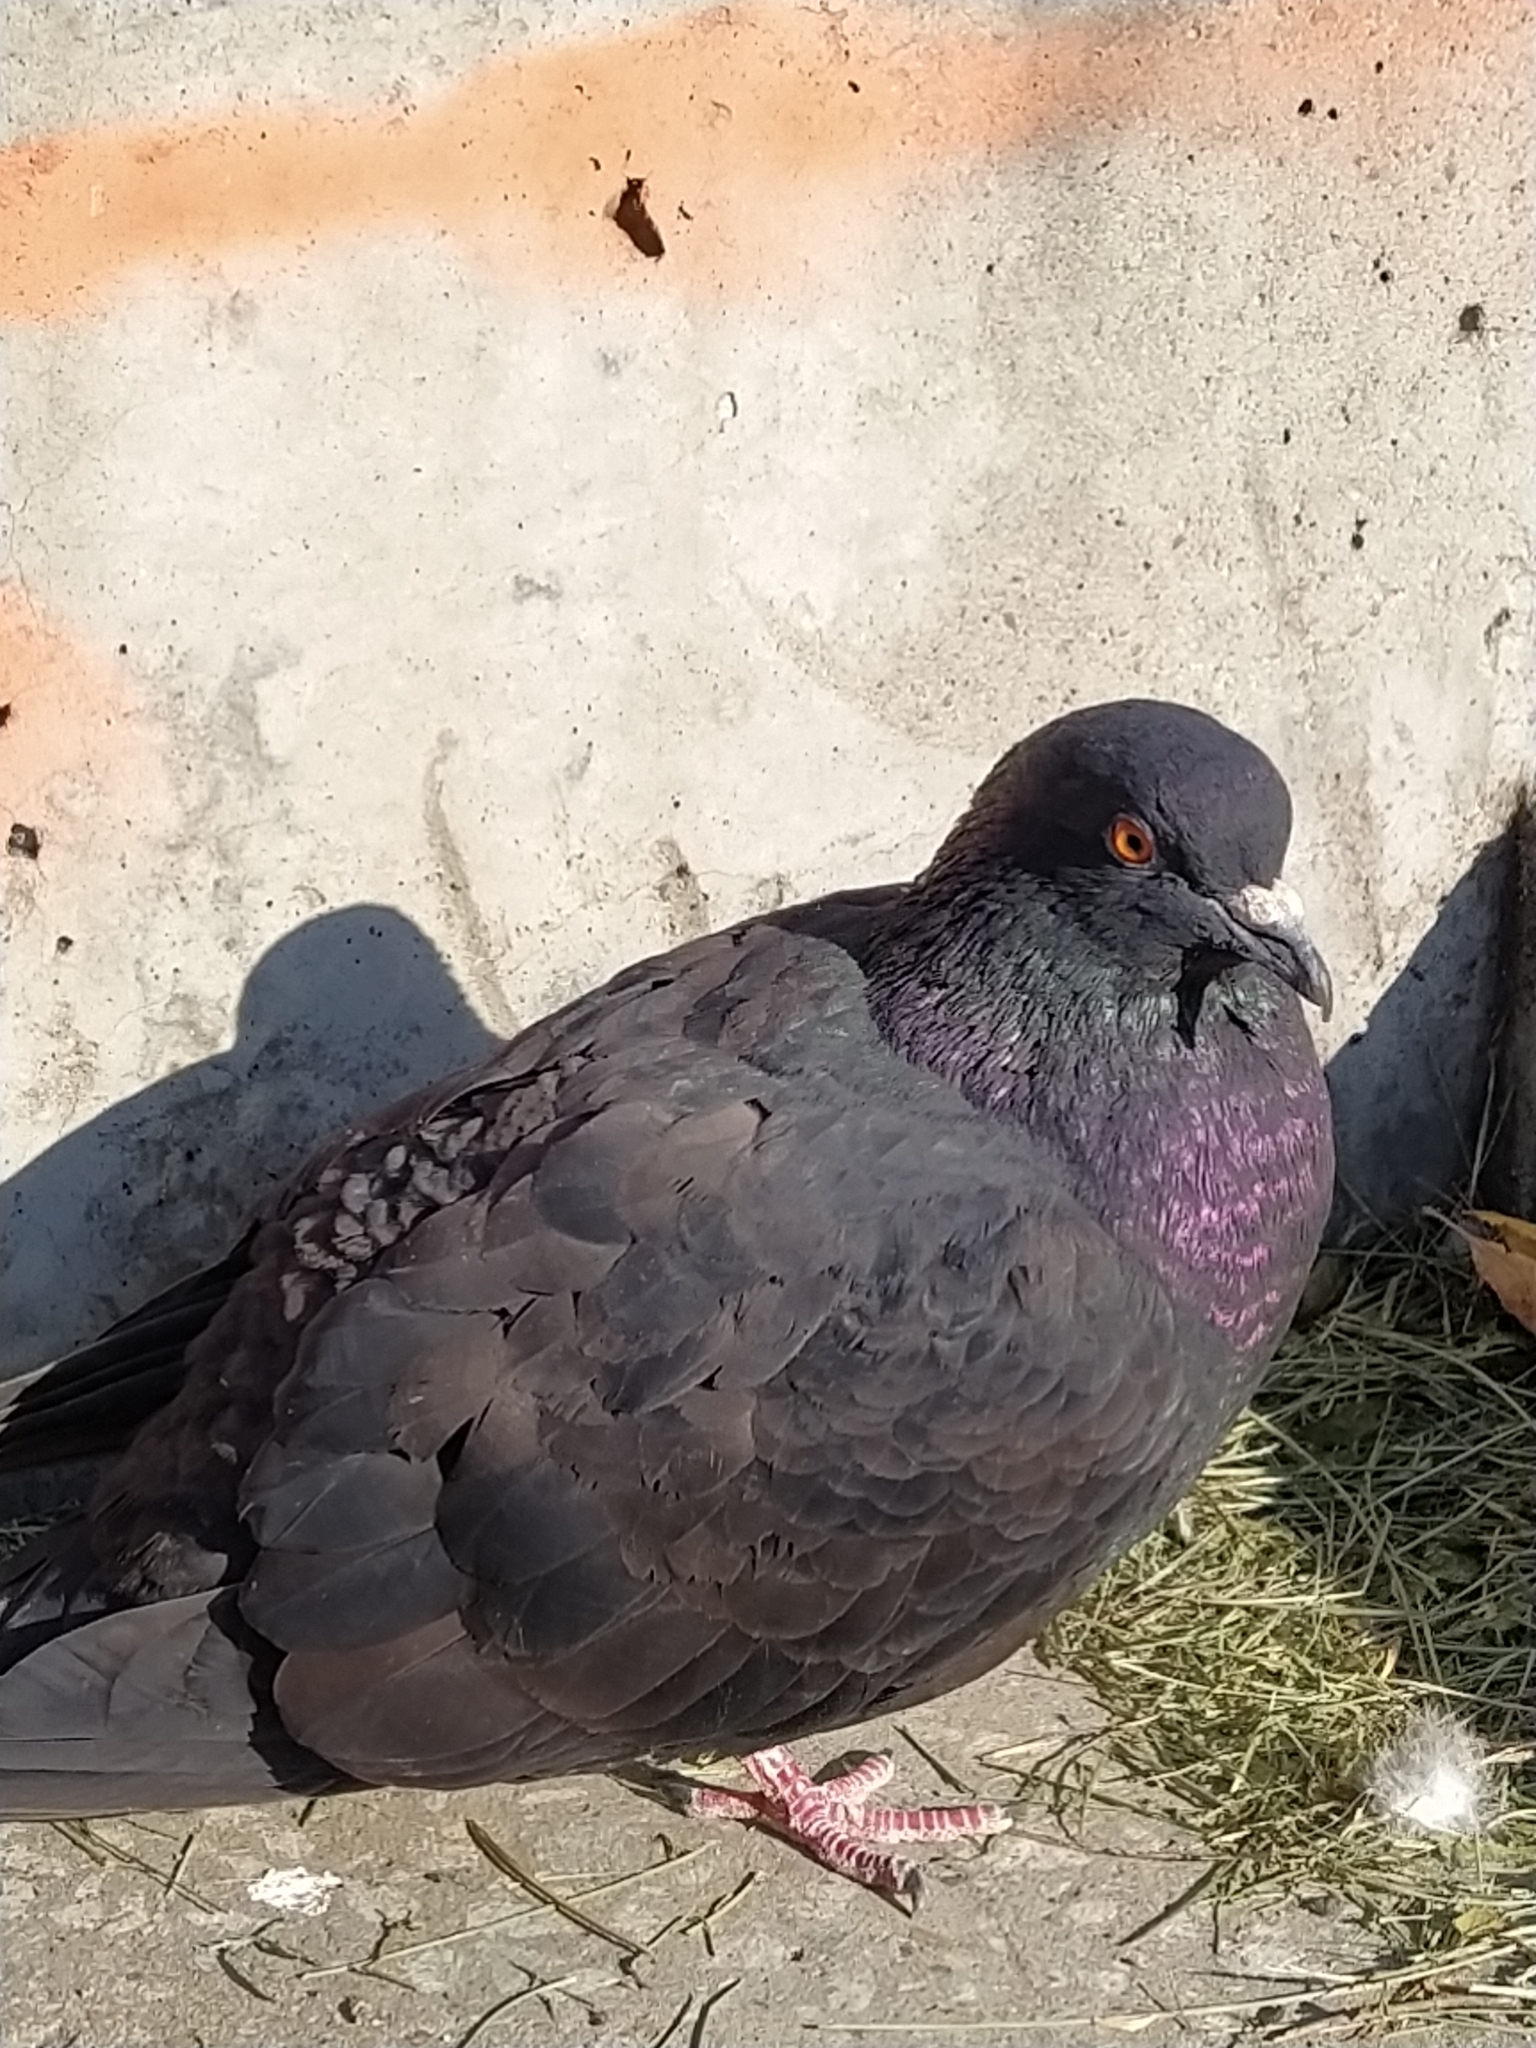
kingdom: Animalia
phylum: Chordata
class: Aves
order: Columbiformes
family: Columbidae
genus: Columba
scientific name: Columba livia
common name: Rock pigeon
